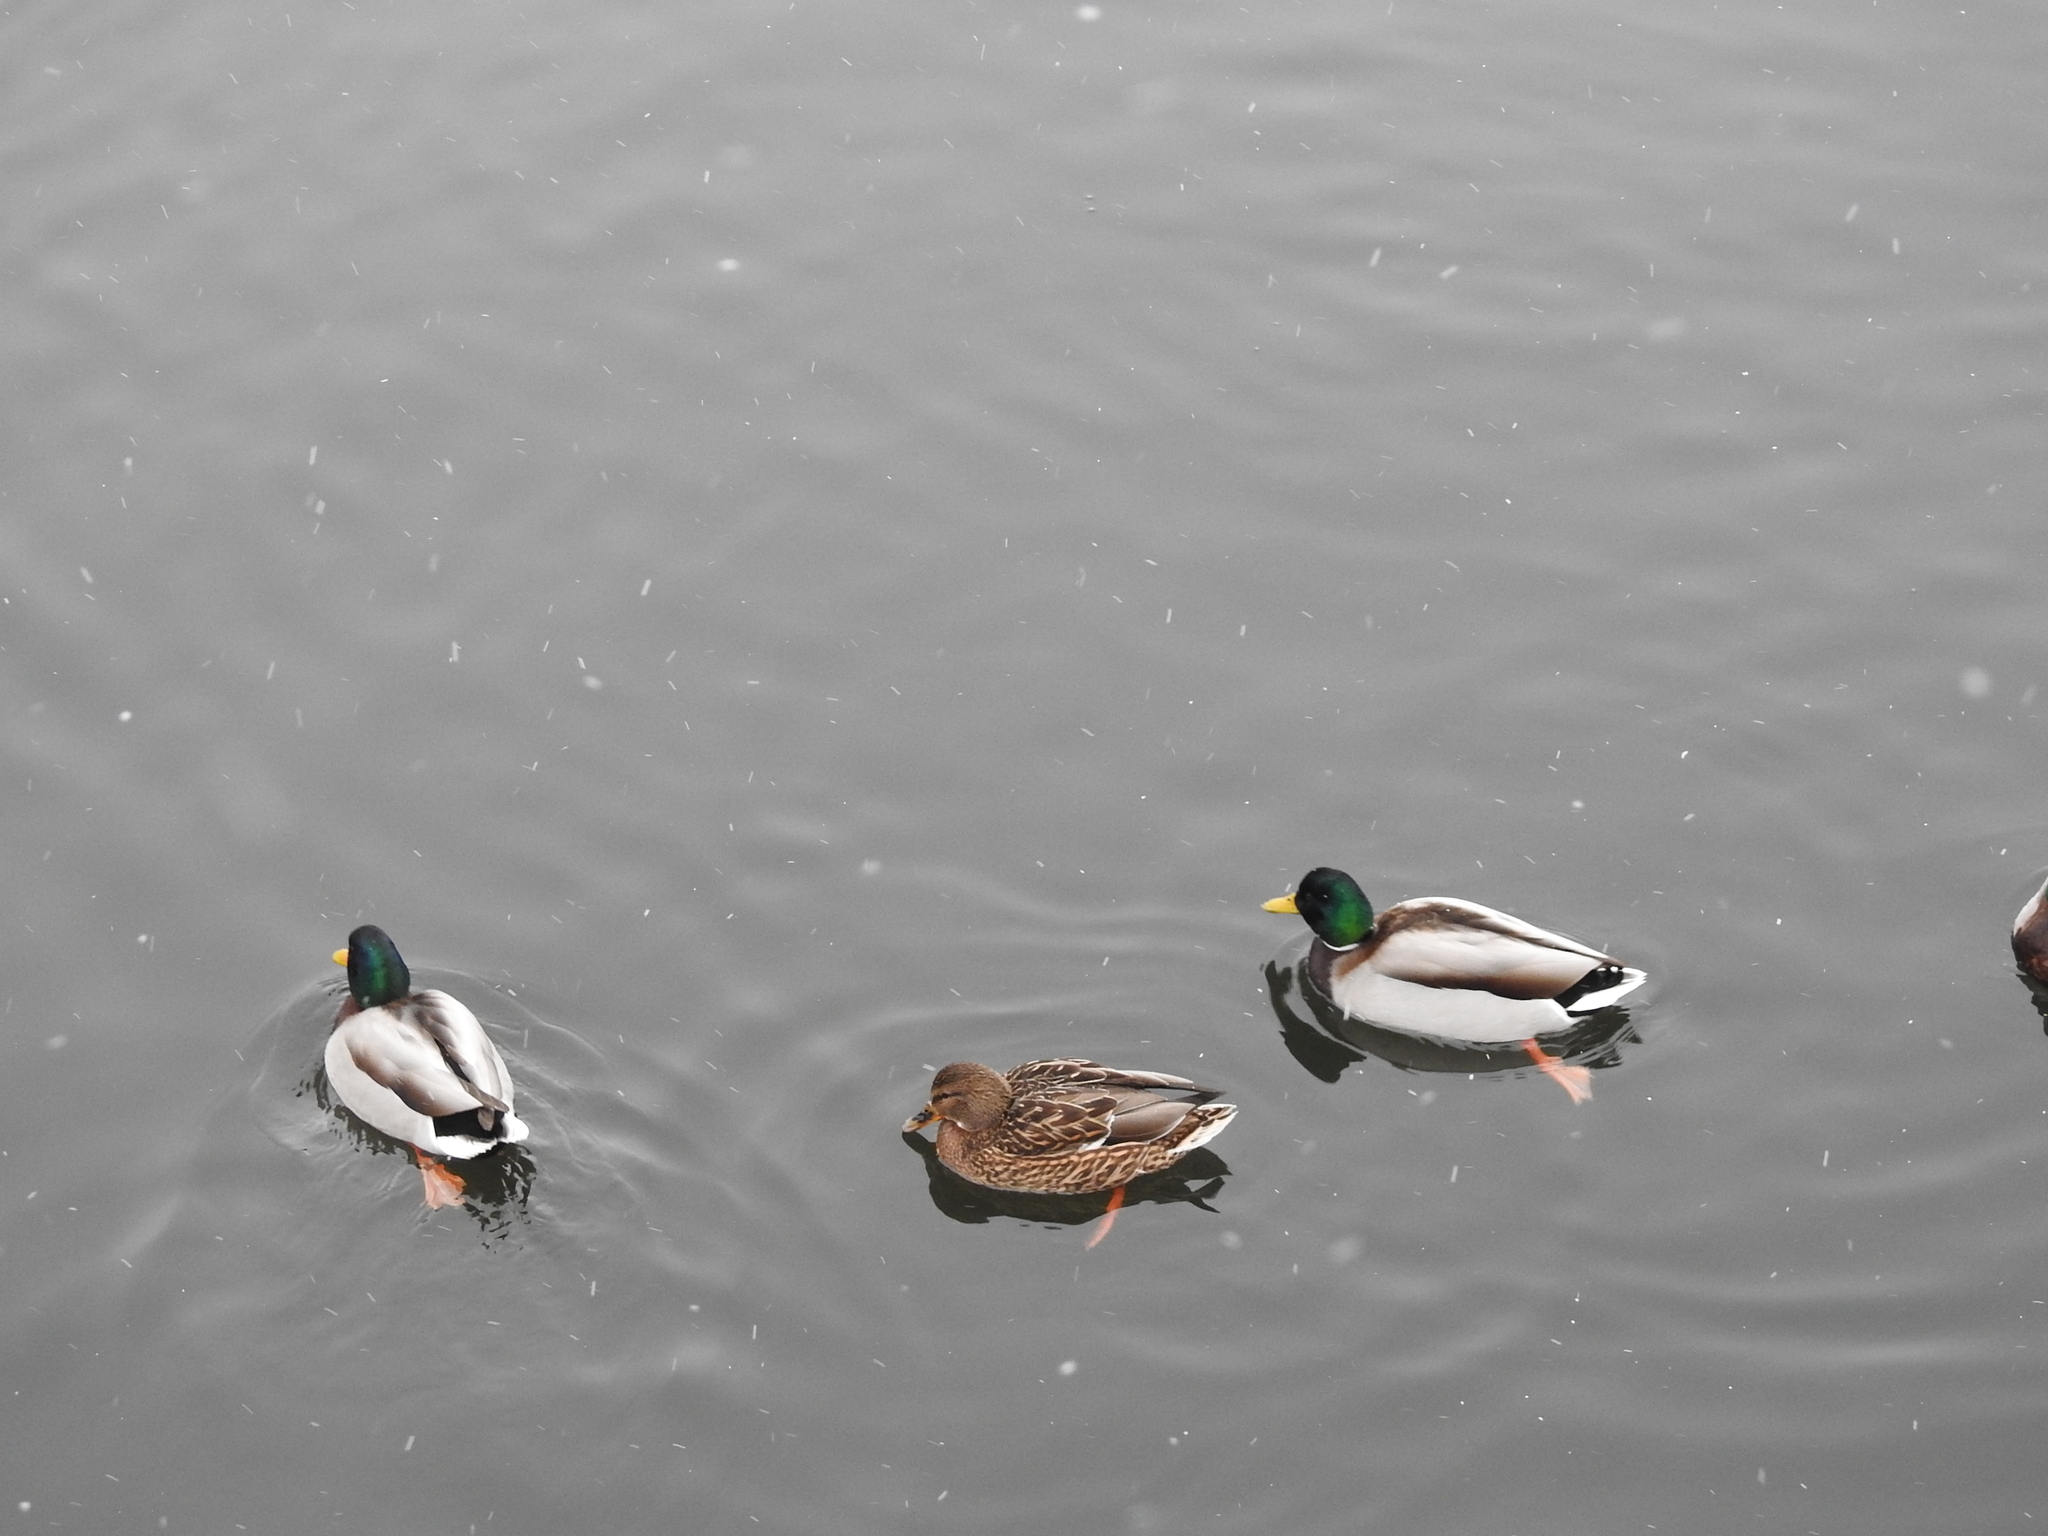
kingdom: Animalia
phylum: Chordata
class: Aves
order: Anseriformes
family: Anatidae
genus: Anas
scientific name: Anas platyrhynchos
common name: Mallard
